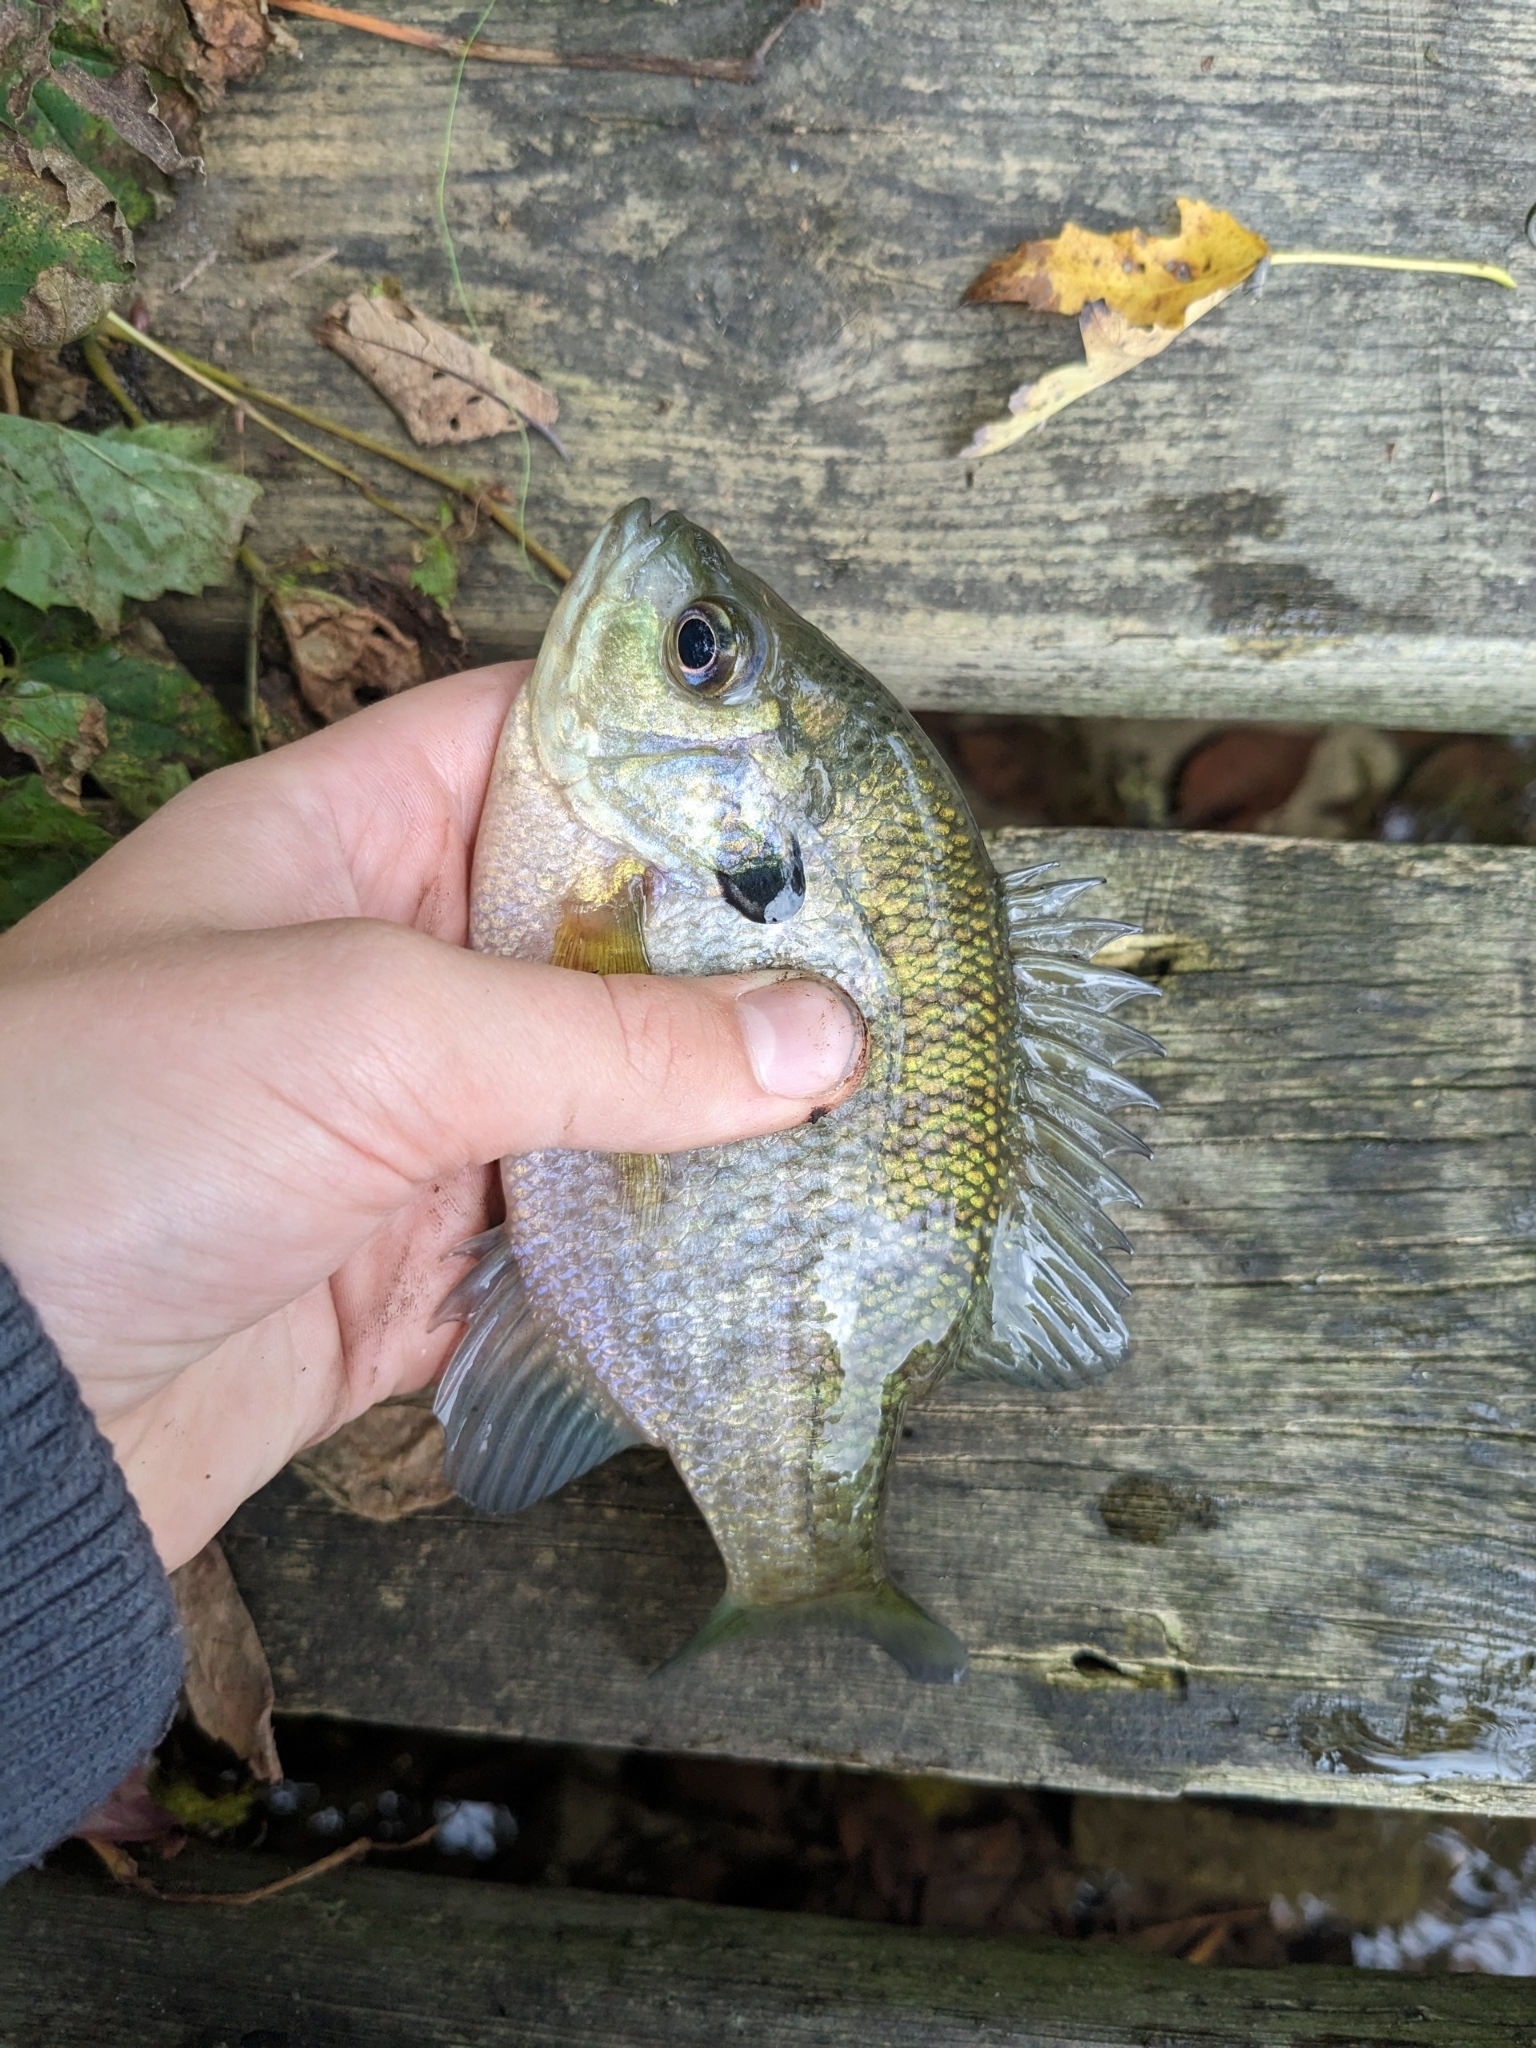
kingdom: Animalia
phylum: Chordata
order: Perciformes
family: Centrarchidae
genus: Lepomis
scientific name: Lepomis macrochirus
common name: Bluegill
